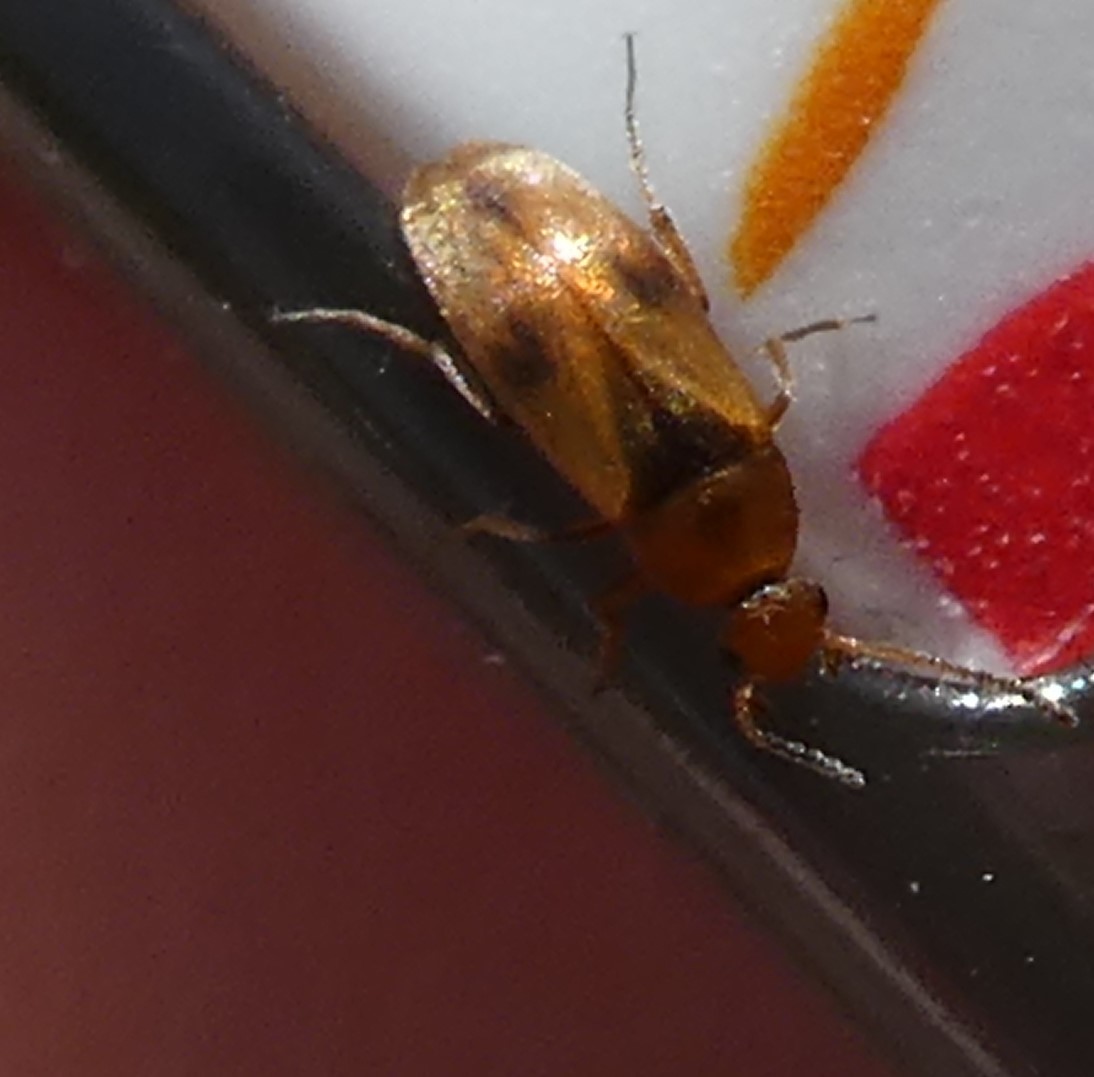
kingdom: Animalia
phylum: Arthropoda
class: Insecta
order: Coleoptera
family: Scraptiidae
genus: Anaspis
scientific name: Anaspis maculata
